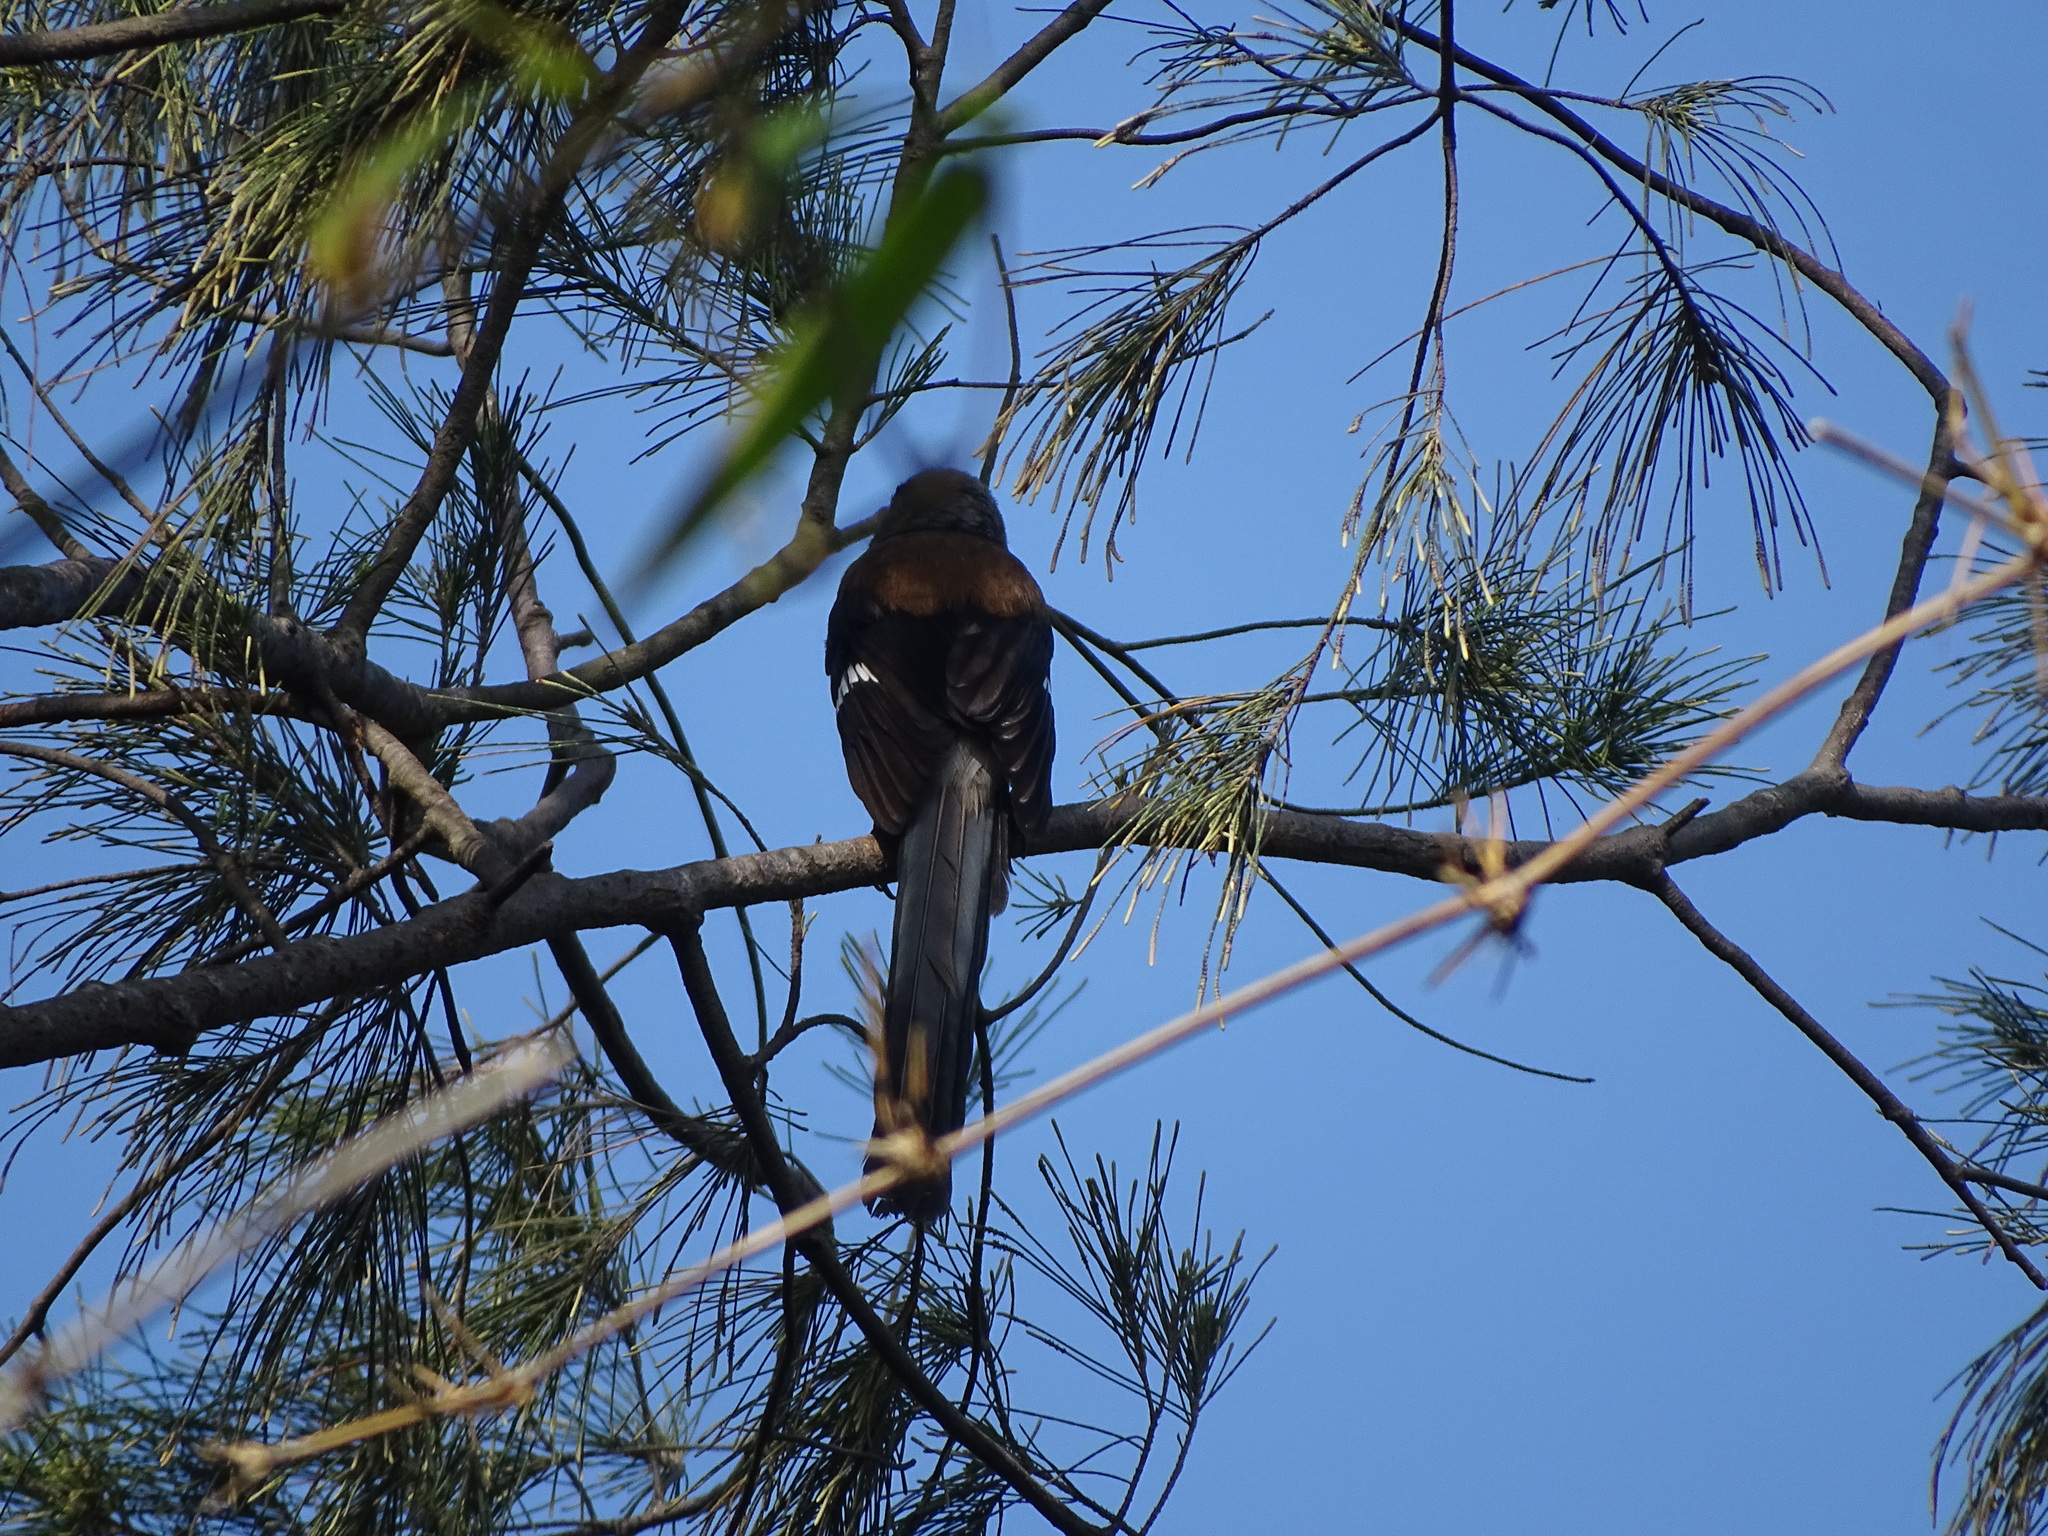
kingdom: Animalia
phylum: Chordata
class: Aves
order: Passeriformes
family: Corvidae
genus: Dendrocitta
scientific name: Dendrocitta formosae
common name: Grey treepie
